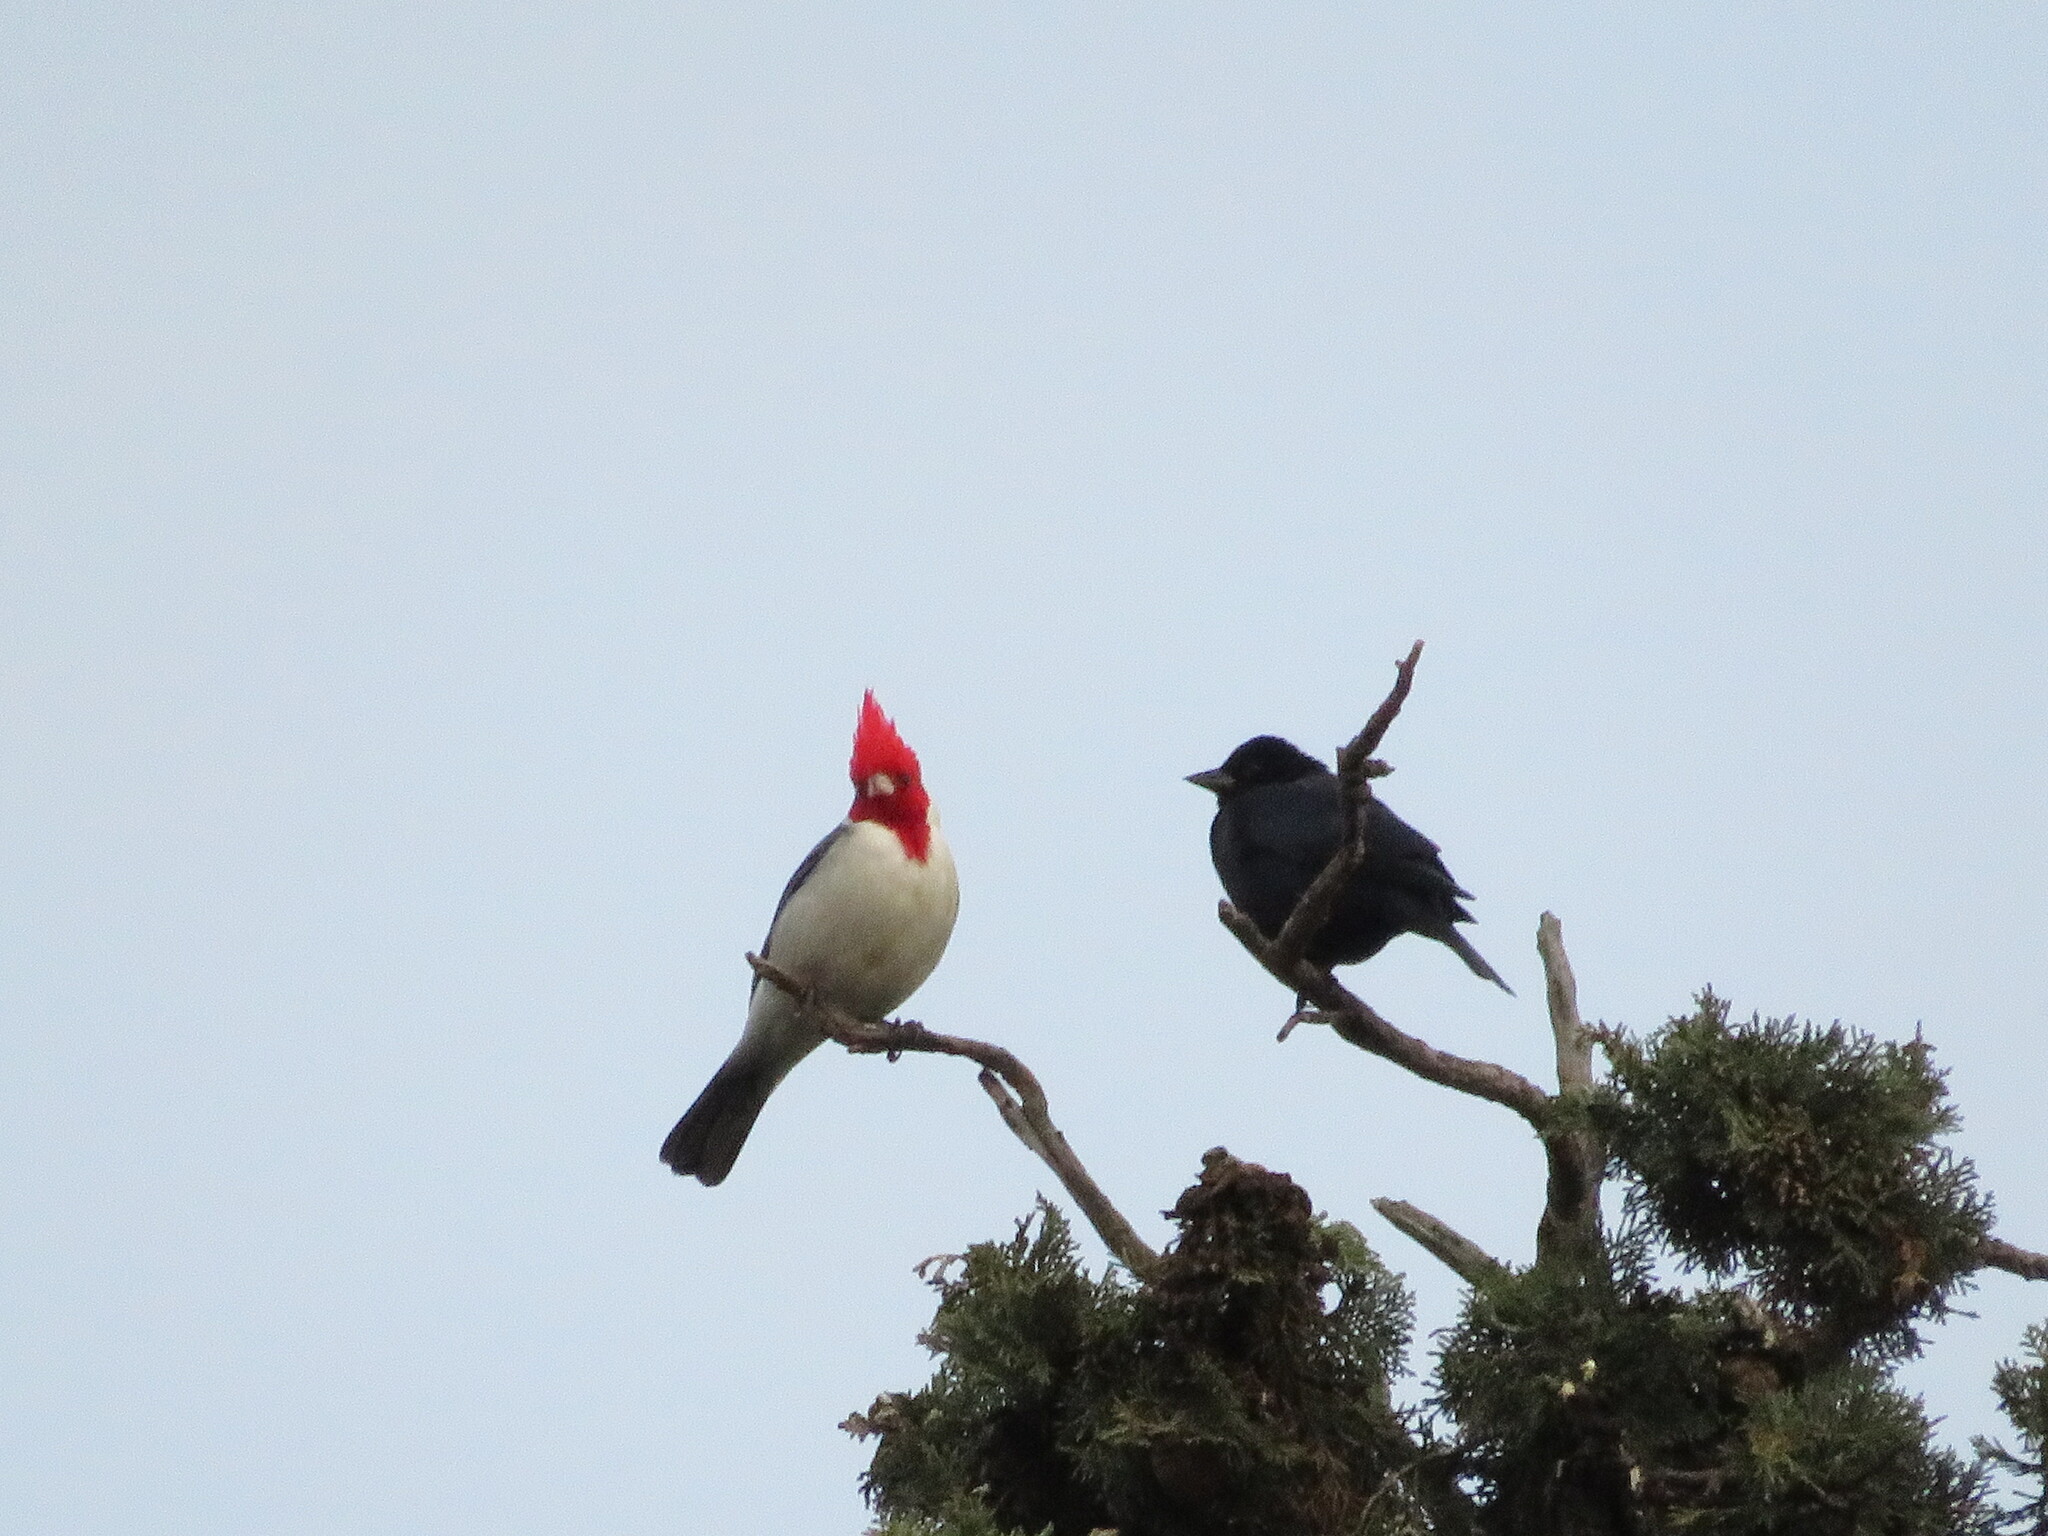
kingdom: Animalia
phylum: Chordata
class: Aves
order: Passeriformes
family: Icteridae
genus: Molothrus
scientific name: Molothrus bonariensis
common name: Shiny cowbird
